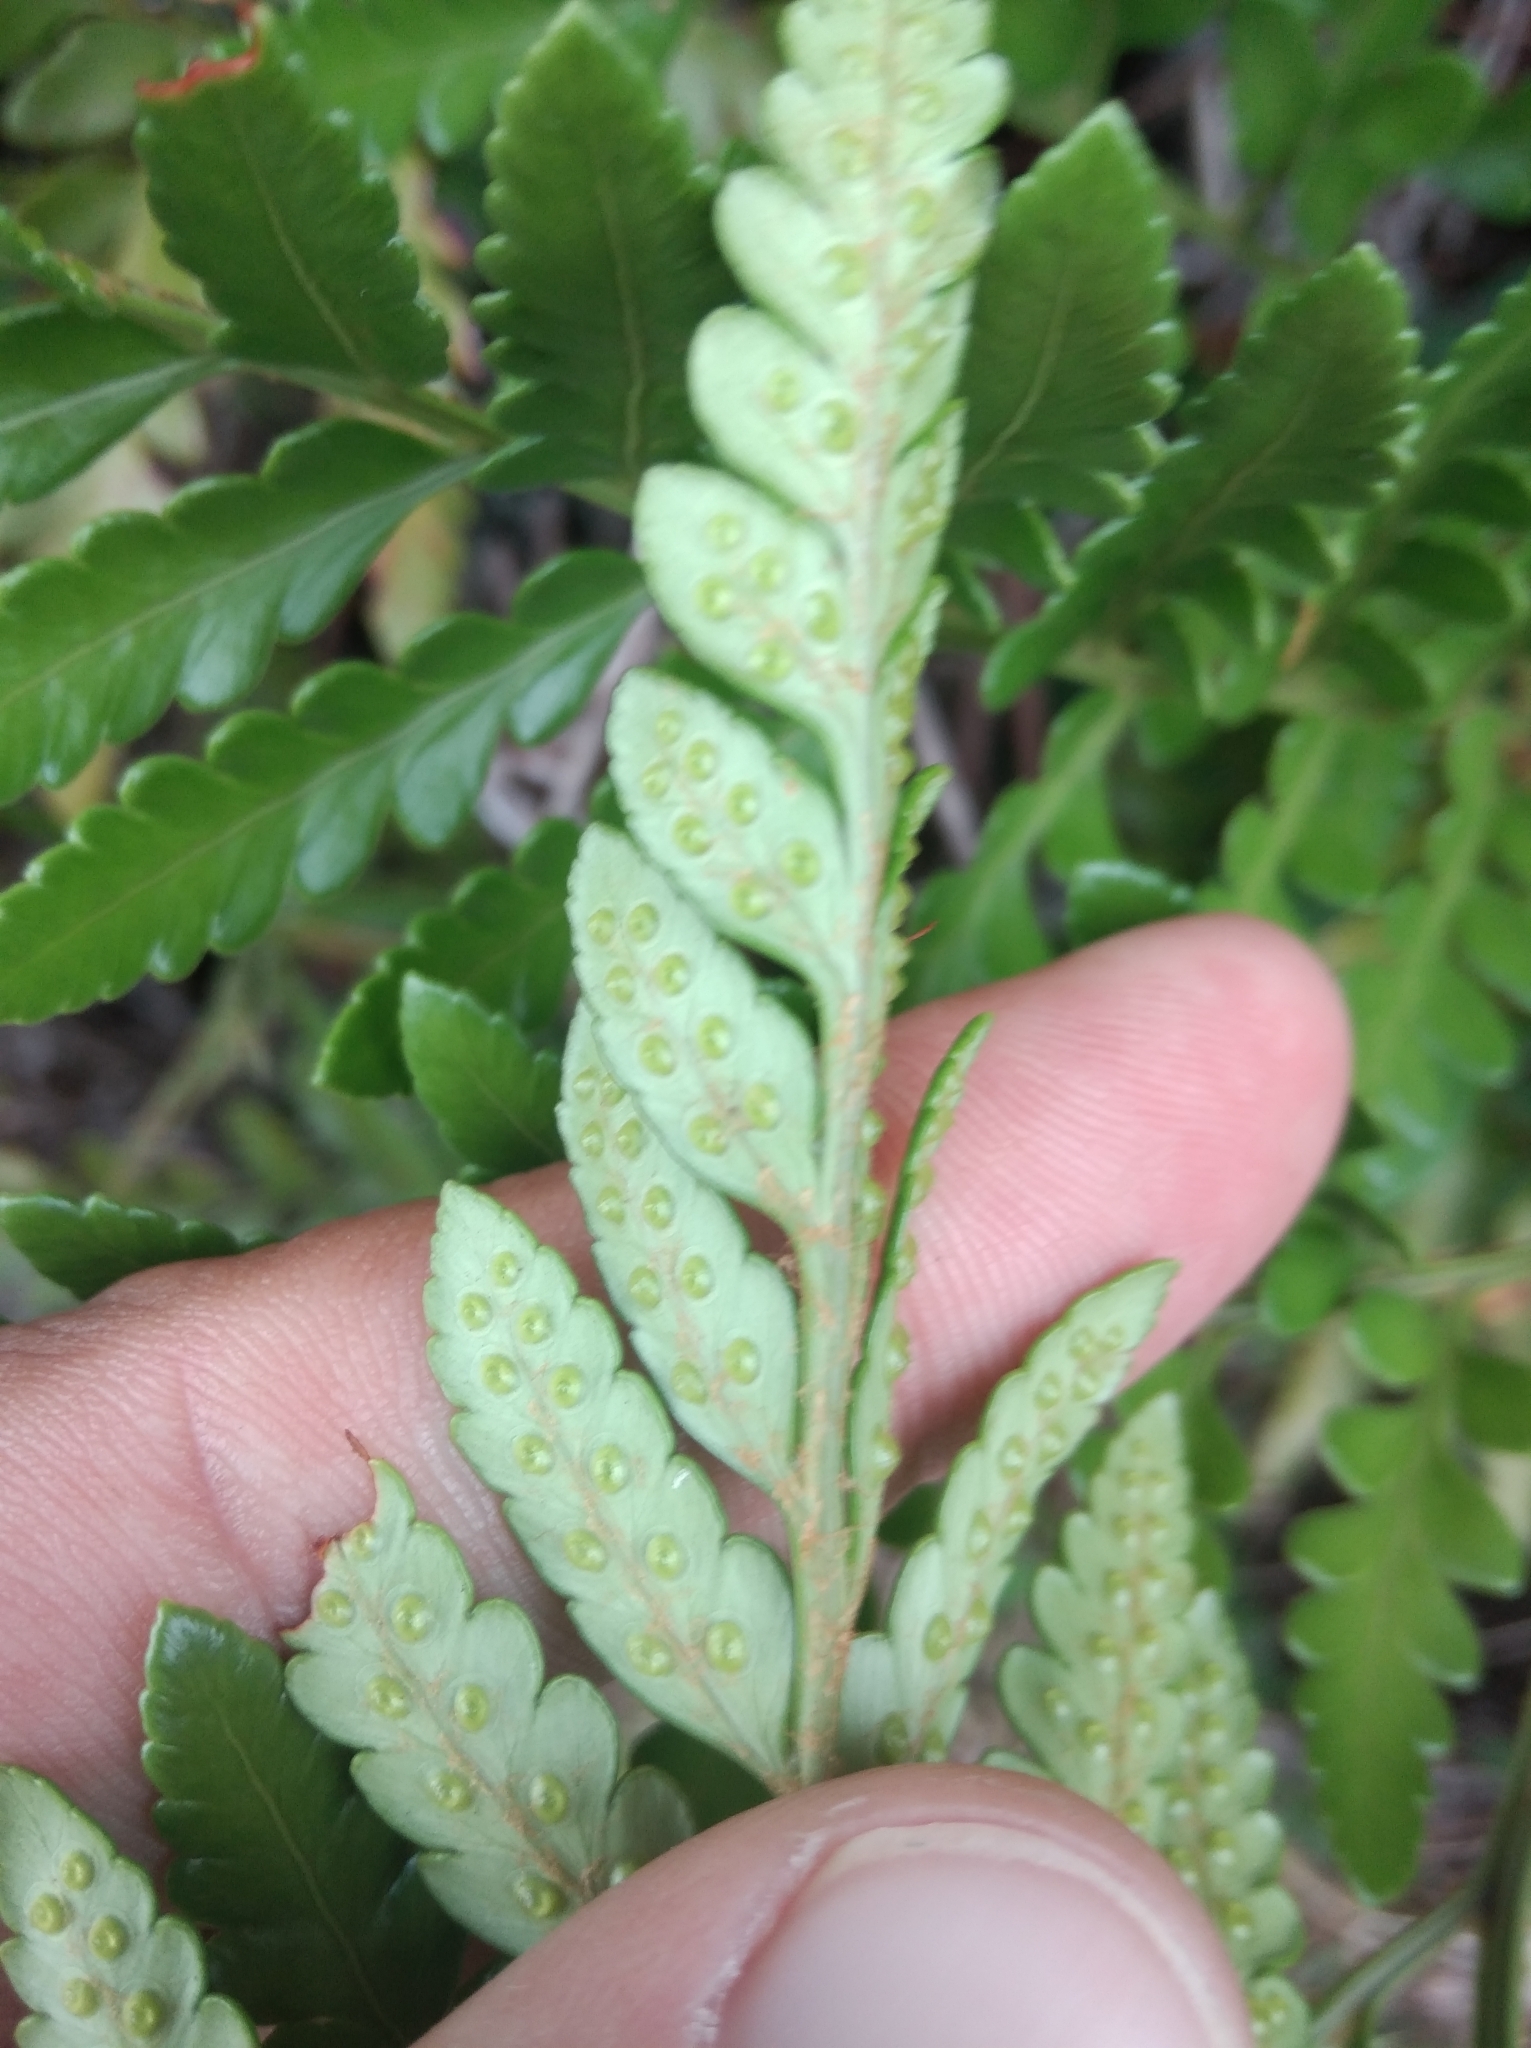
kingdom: Plantae
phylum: Tracheophyta
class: Polypodiopsida
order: Polypodiales
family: Dryopteridaceae
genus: Rumohra
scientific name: Rumohra adiantiformis
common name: Leather fern
